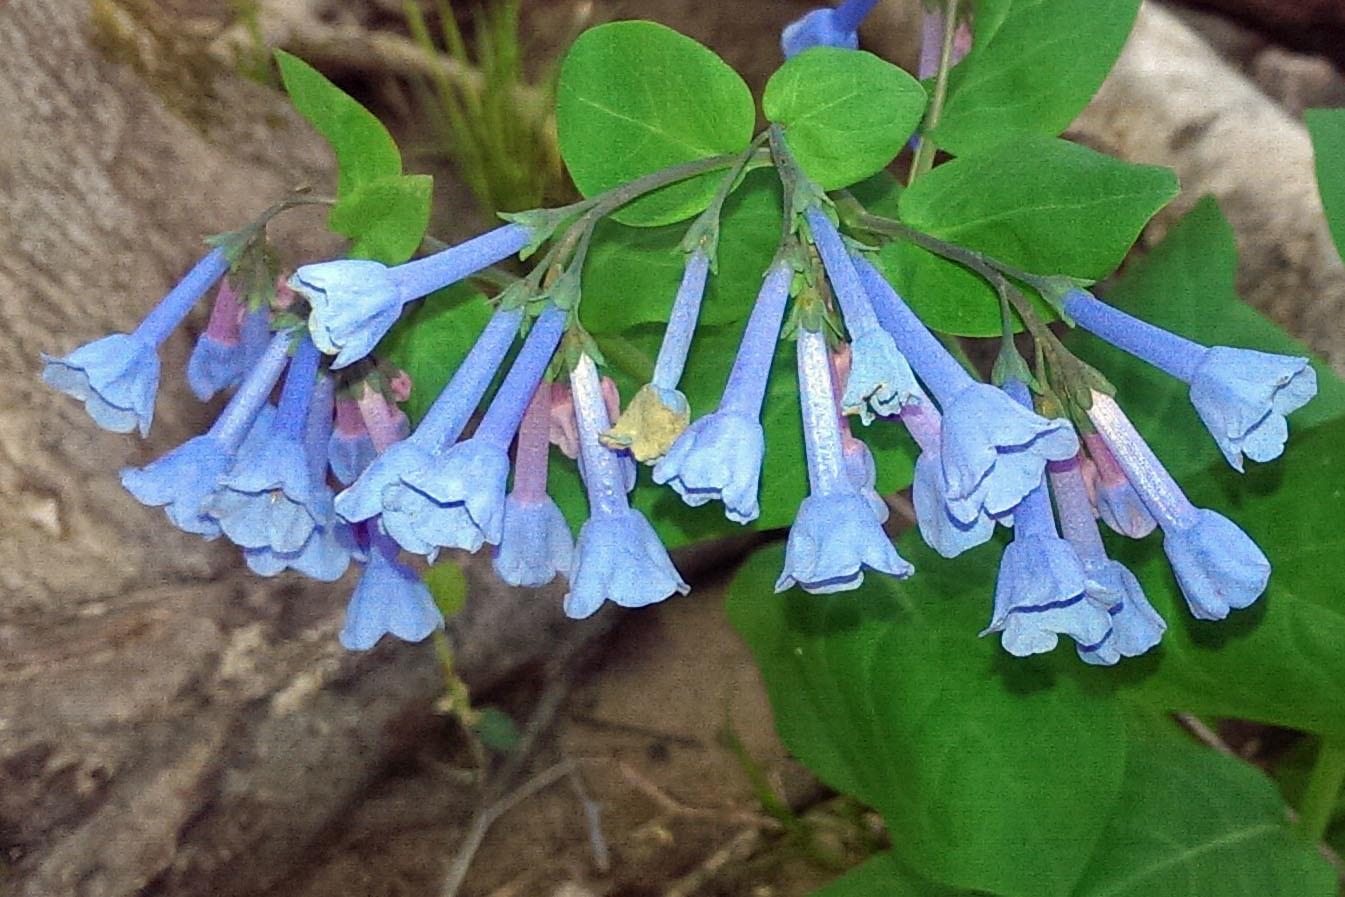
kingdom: Plantae
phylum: Tracheophyta
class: Magnoliopsida
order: Boraginales
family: Boraginaceae
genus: Mertensia
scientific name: Mertensia virginica
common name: Virginia bluebells
